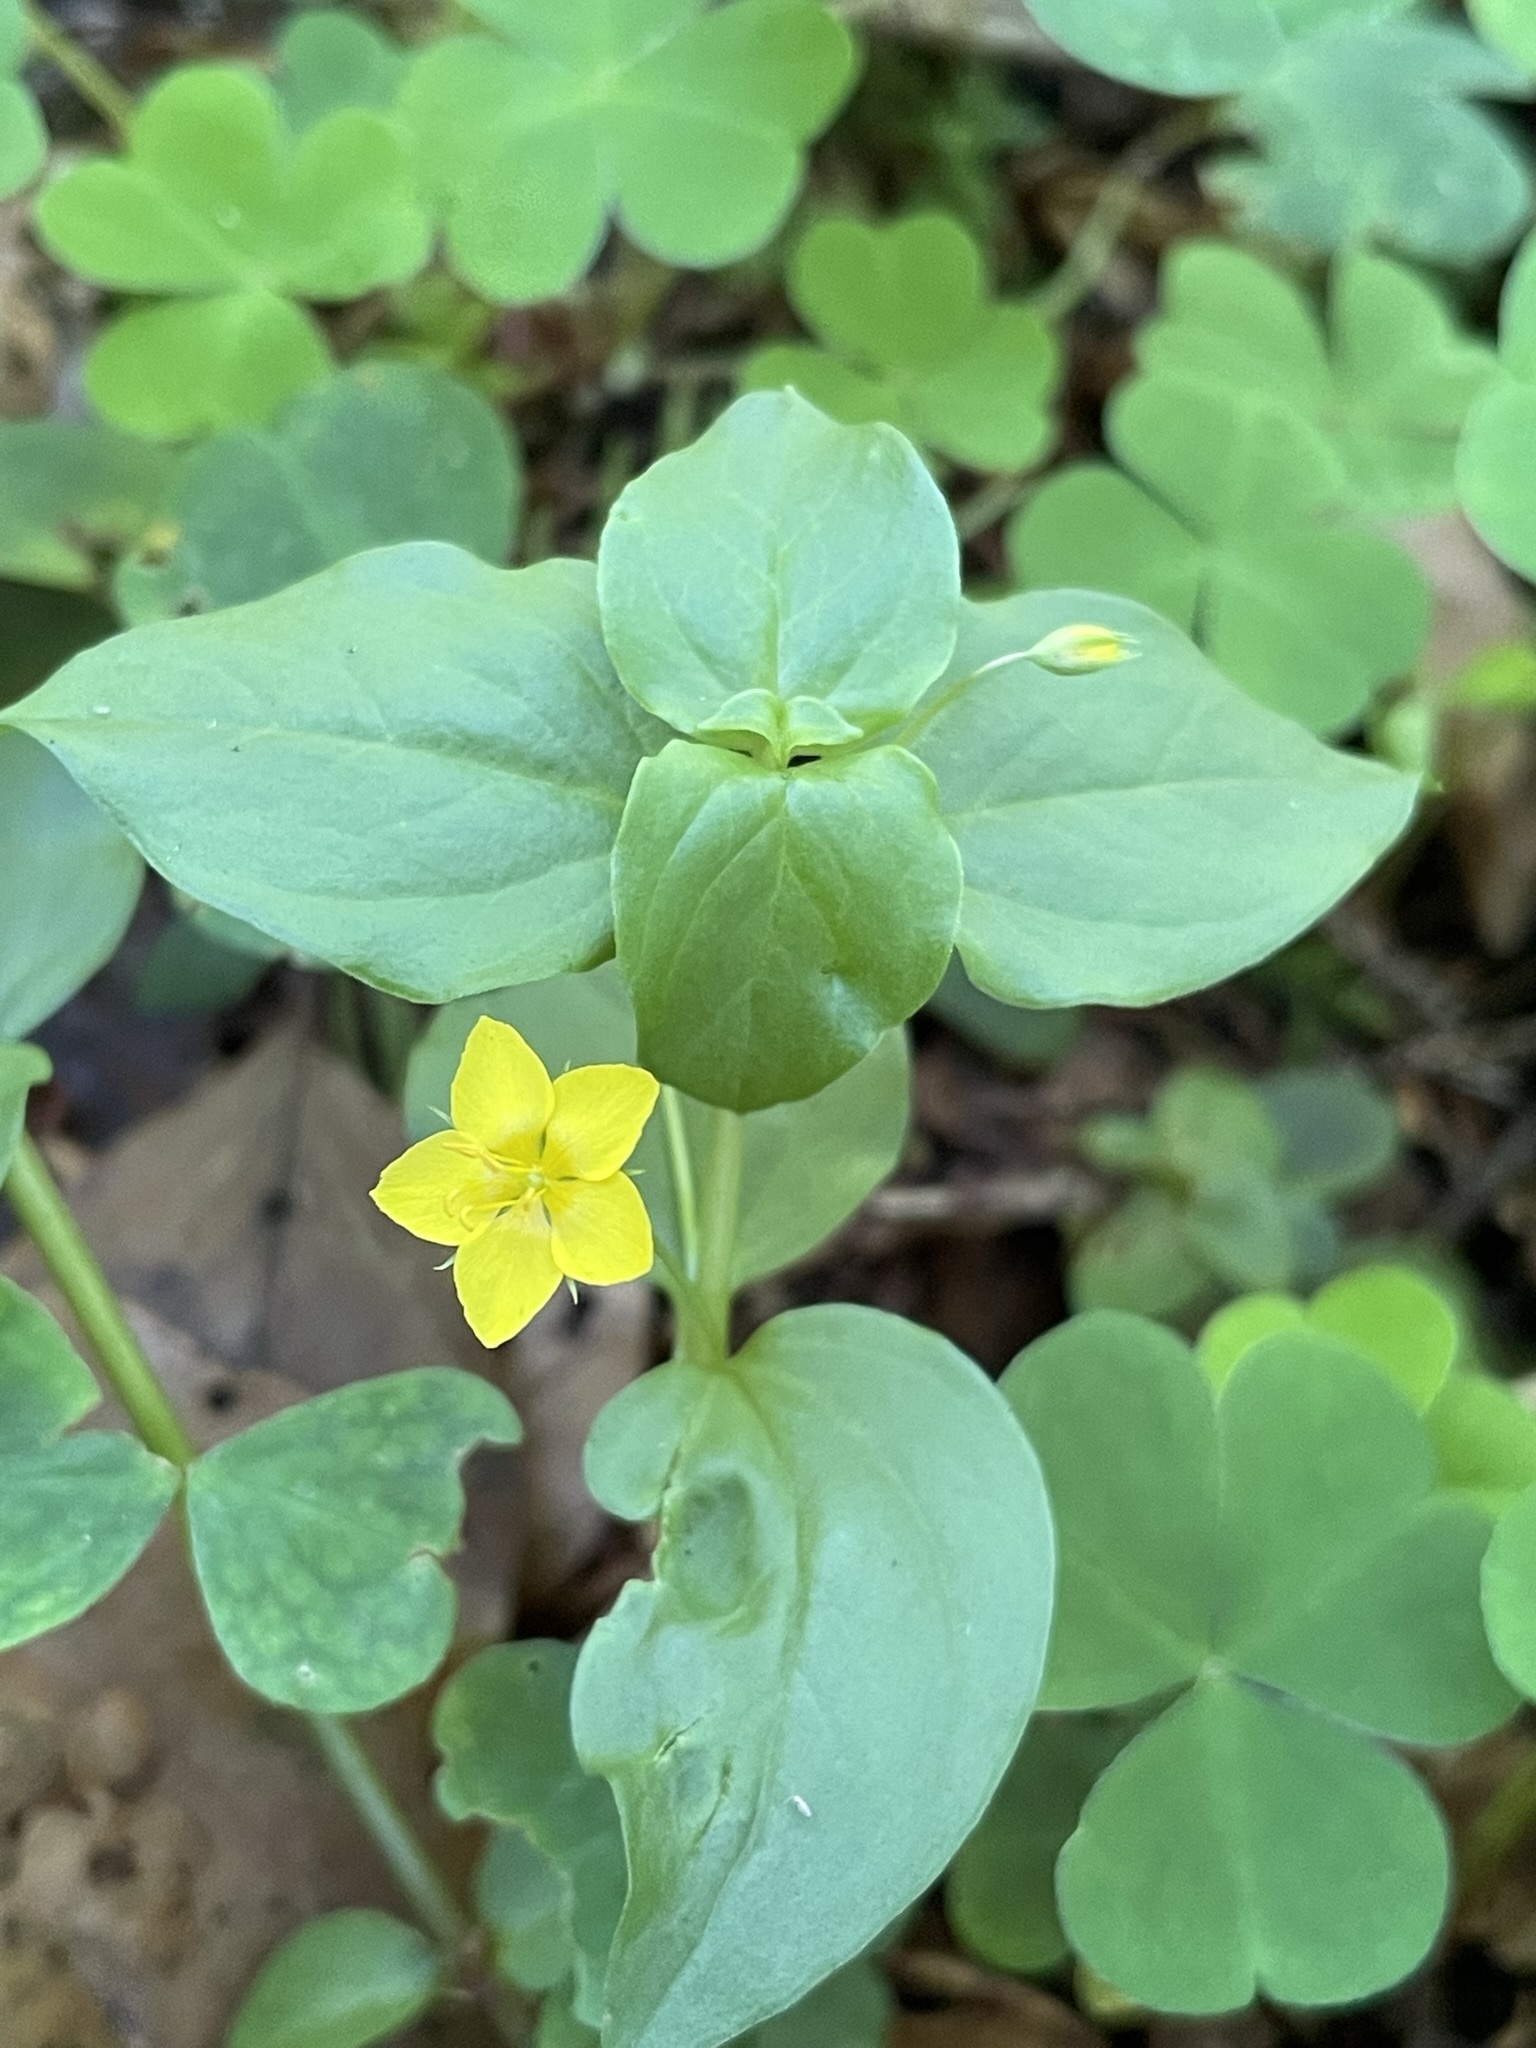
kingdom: Plantae
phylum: Tracheophyta
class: Magnoliopsida
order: Ericales
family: Primulaceae
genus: Lysimachia
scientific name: Lysimachia nemorum
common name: Yellow pimpernel
